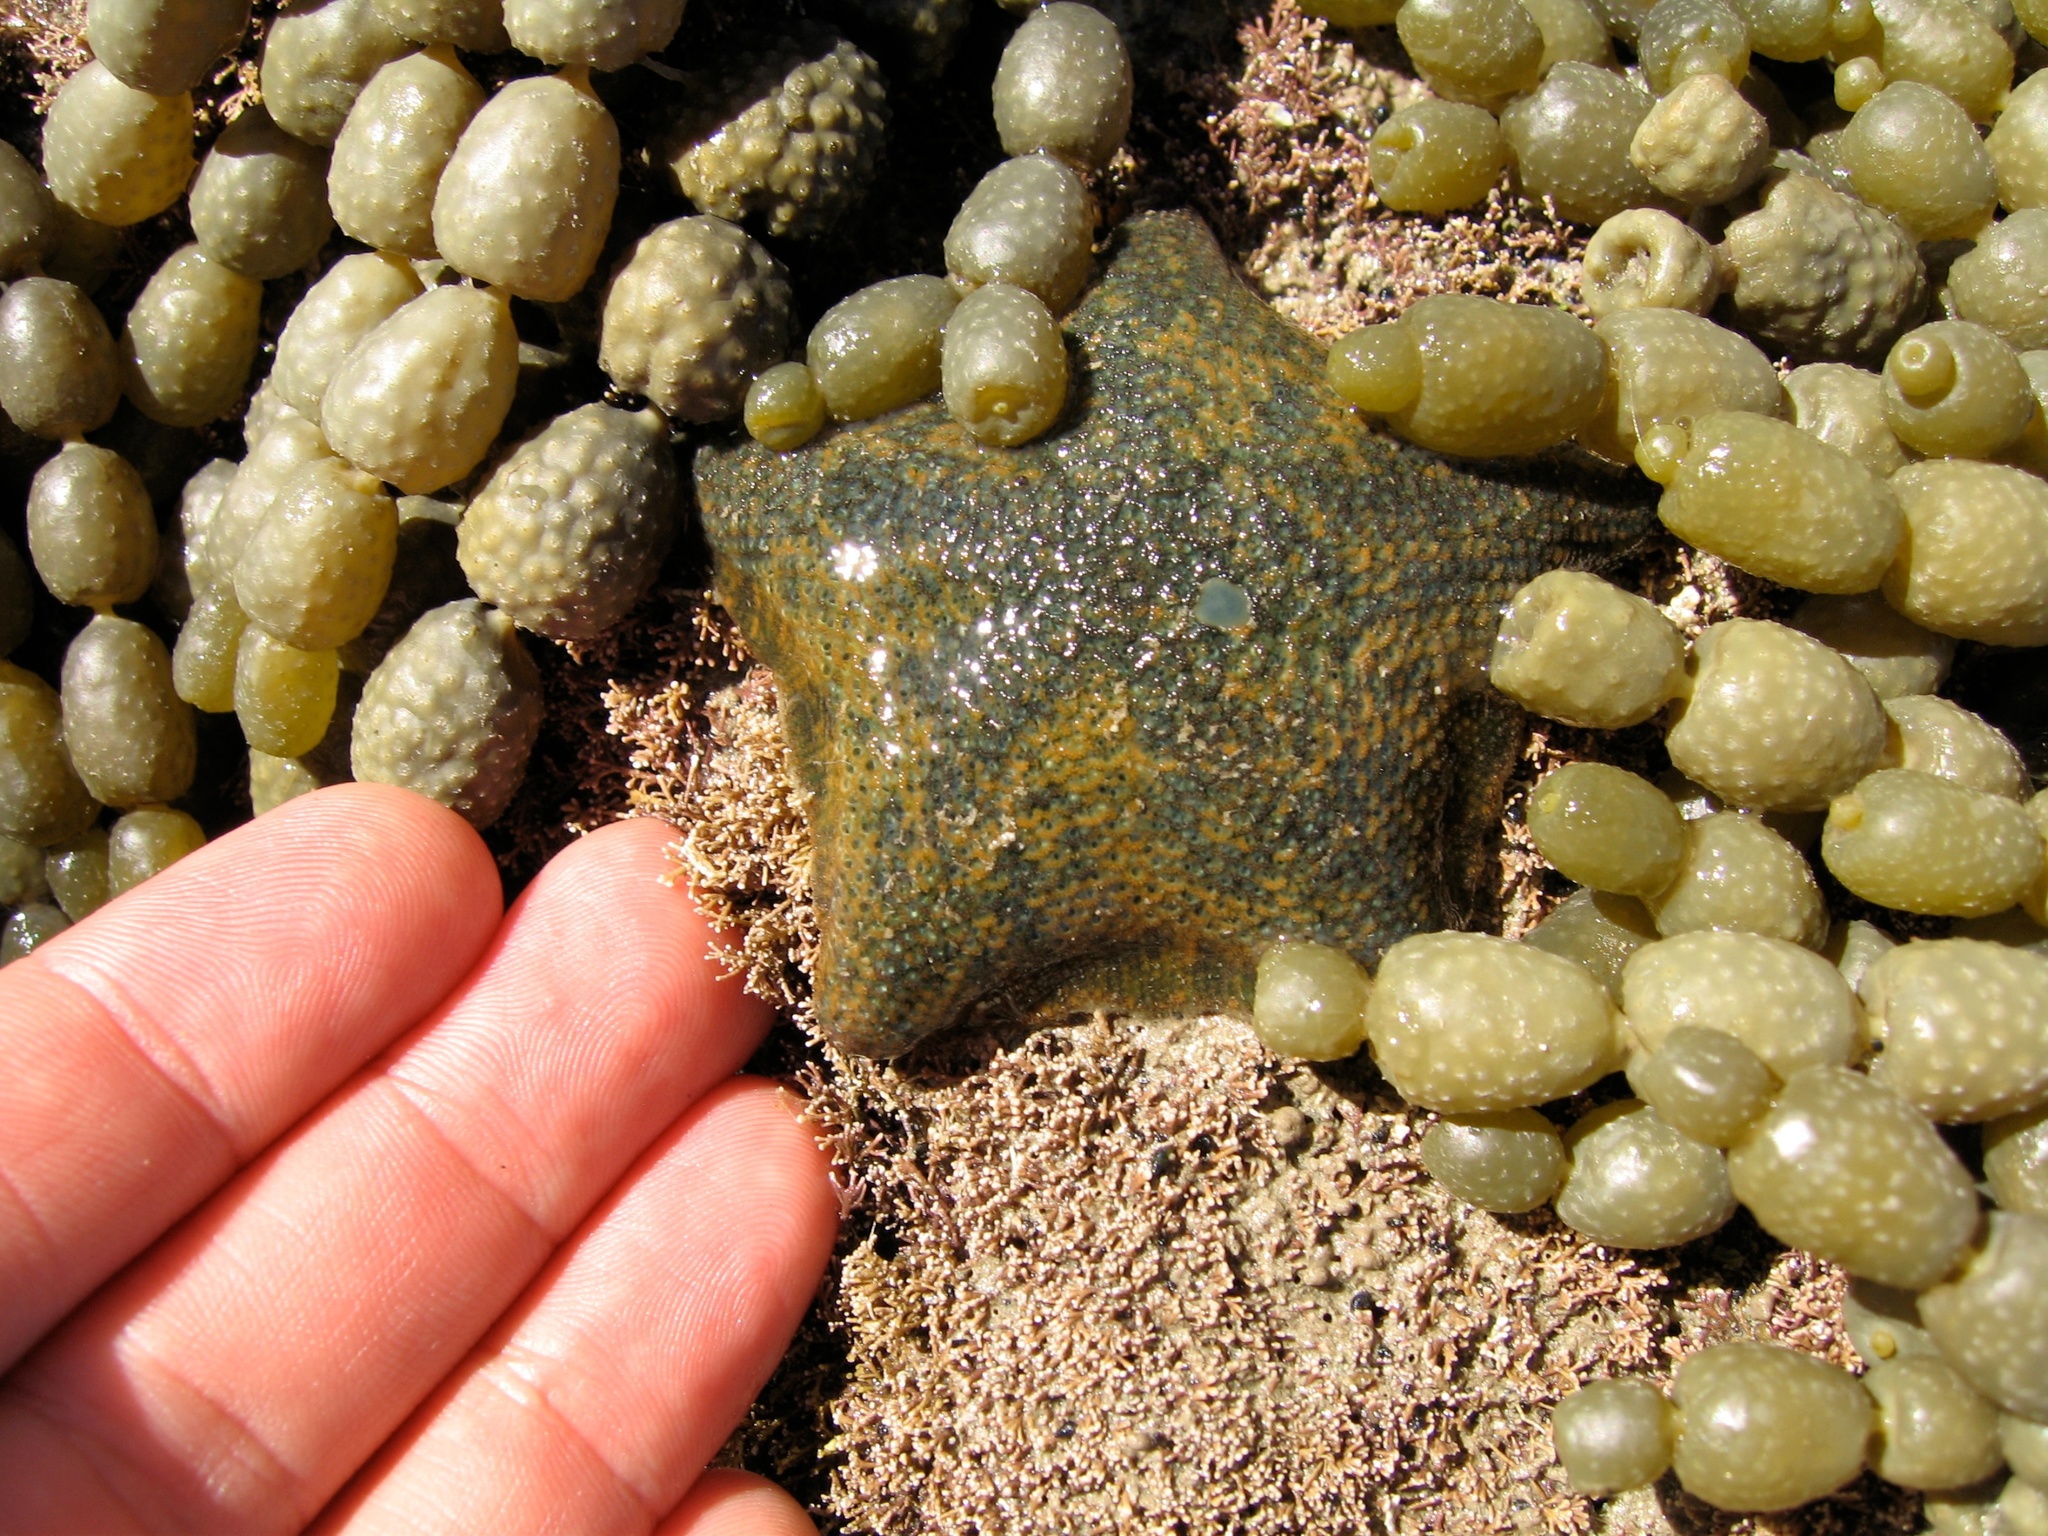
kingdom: Animalia
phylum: Echinodermata
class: Asteroidea
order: Valvatida
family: Asterinidae
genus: Patiriella
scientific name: Patiriella regularis
